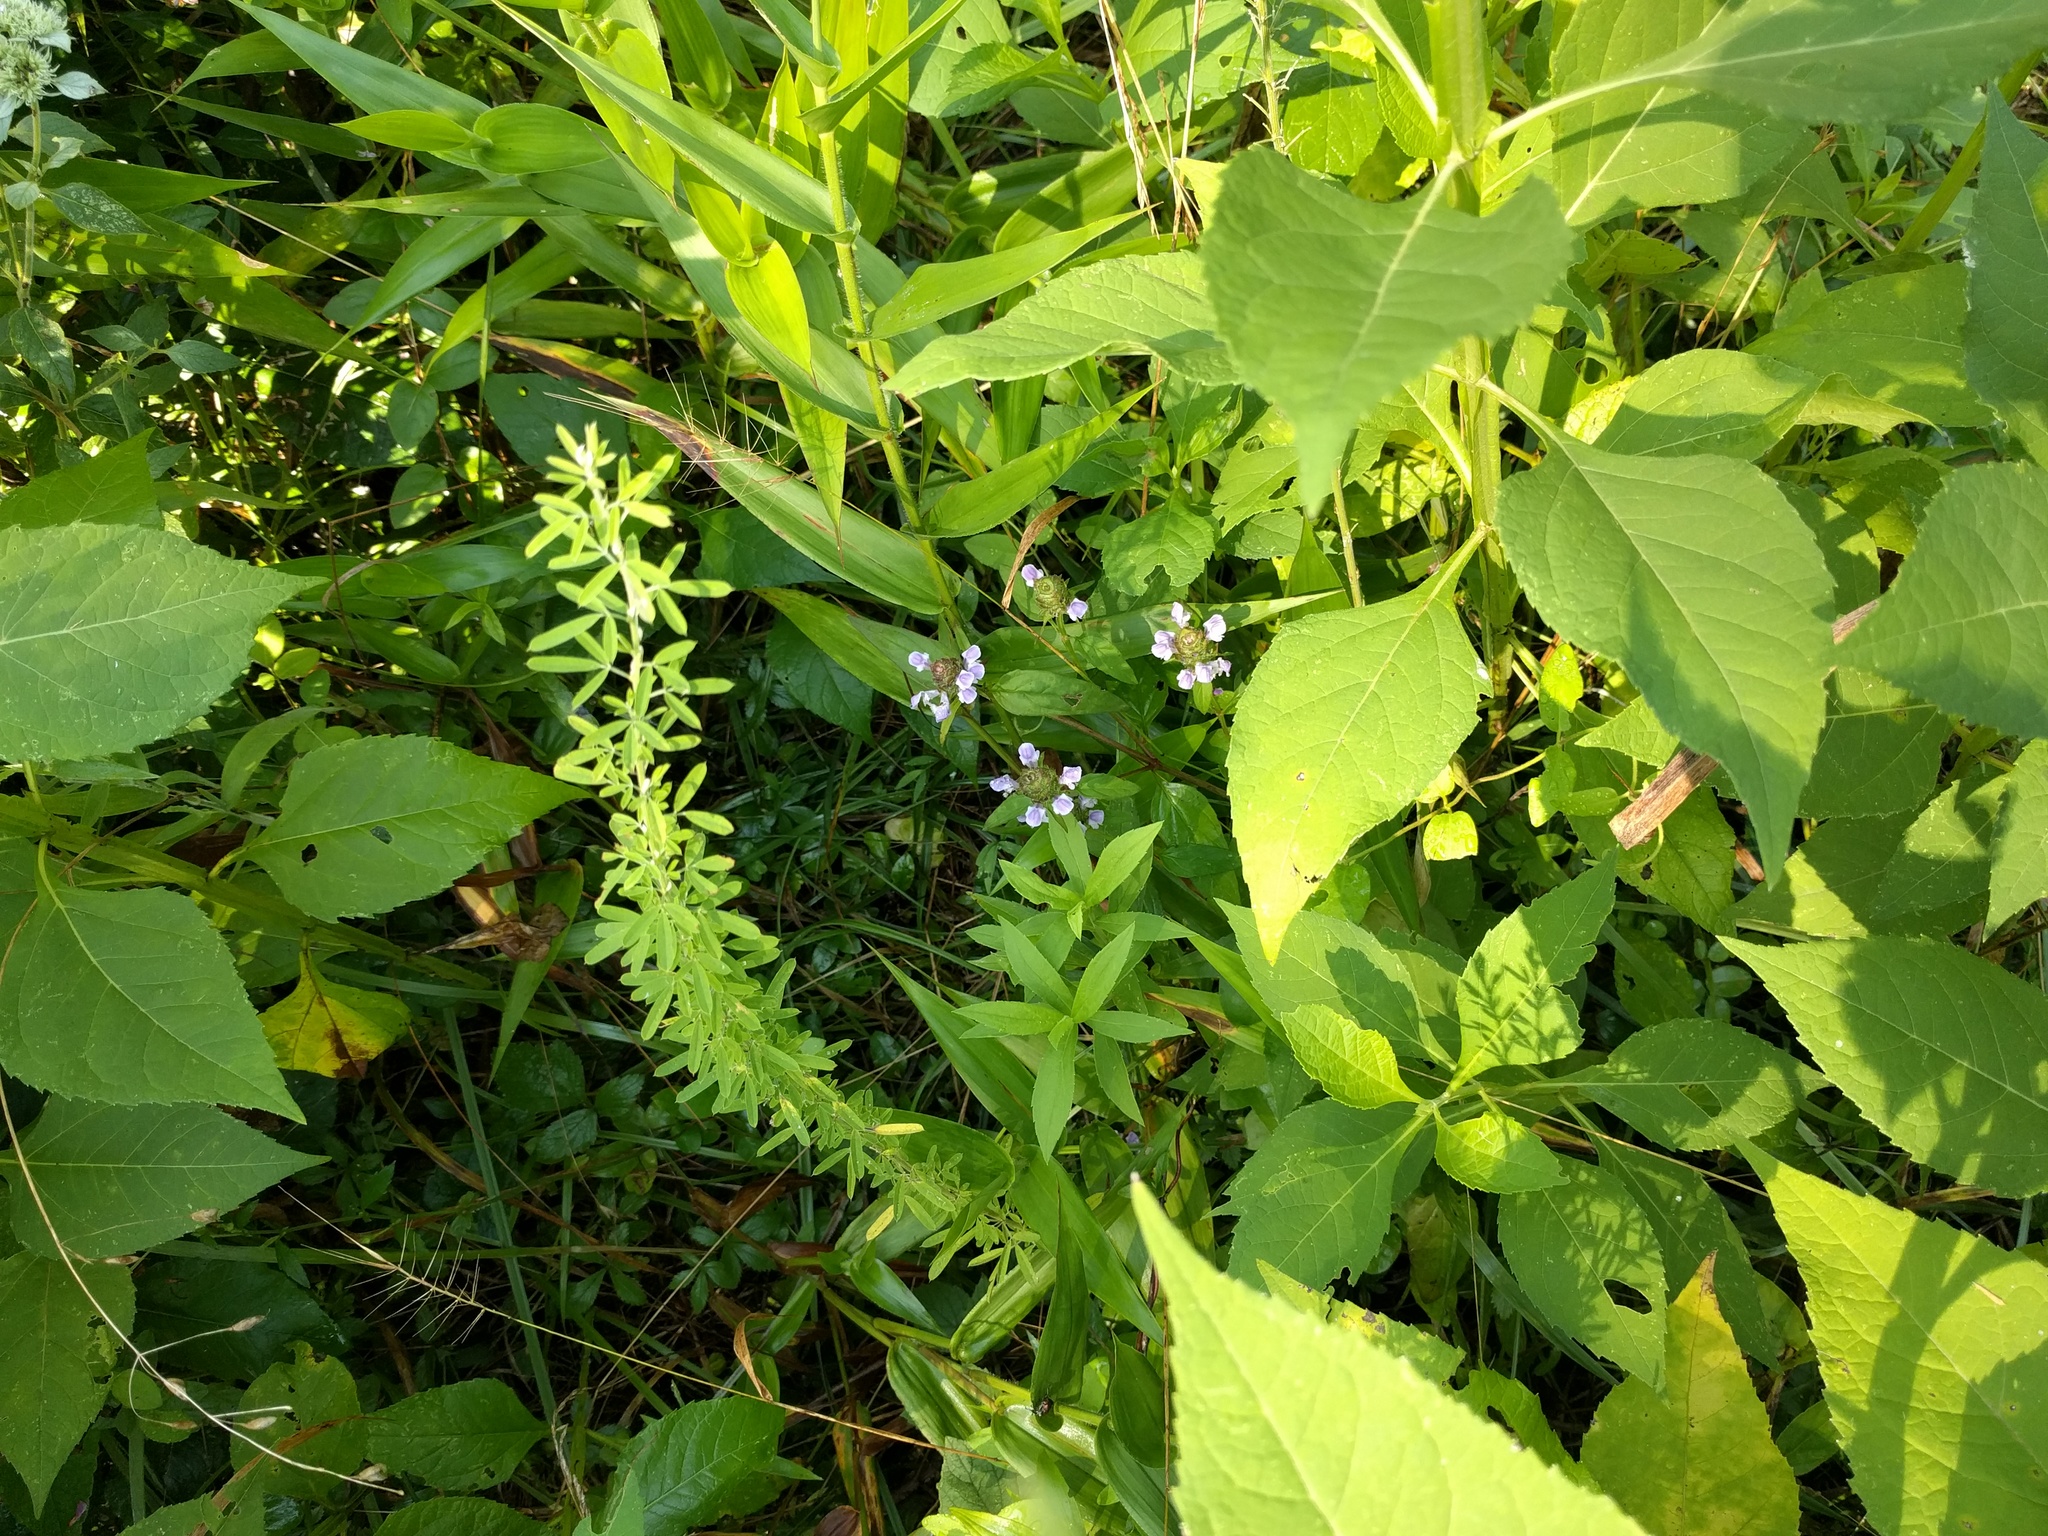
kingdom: Plantae
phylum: Tracheophyta
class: Magnoliopsida
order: Lamiales
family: Lamiaceae
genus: Prunella
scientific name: Prunella vulgaris
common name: Heal-all
